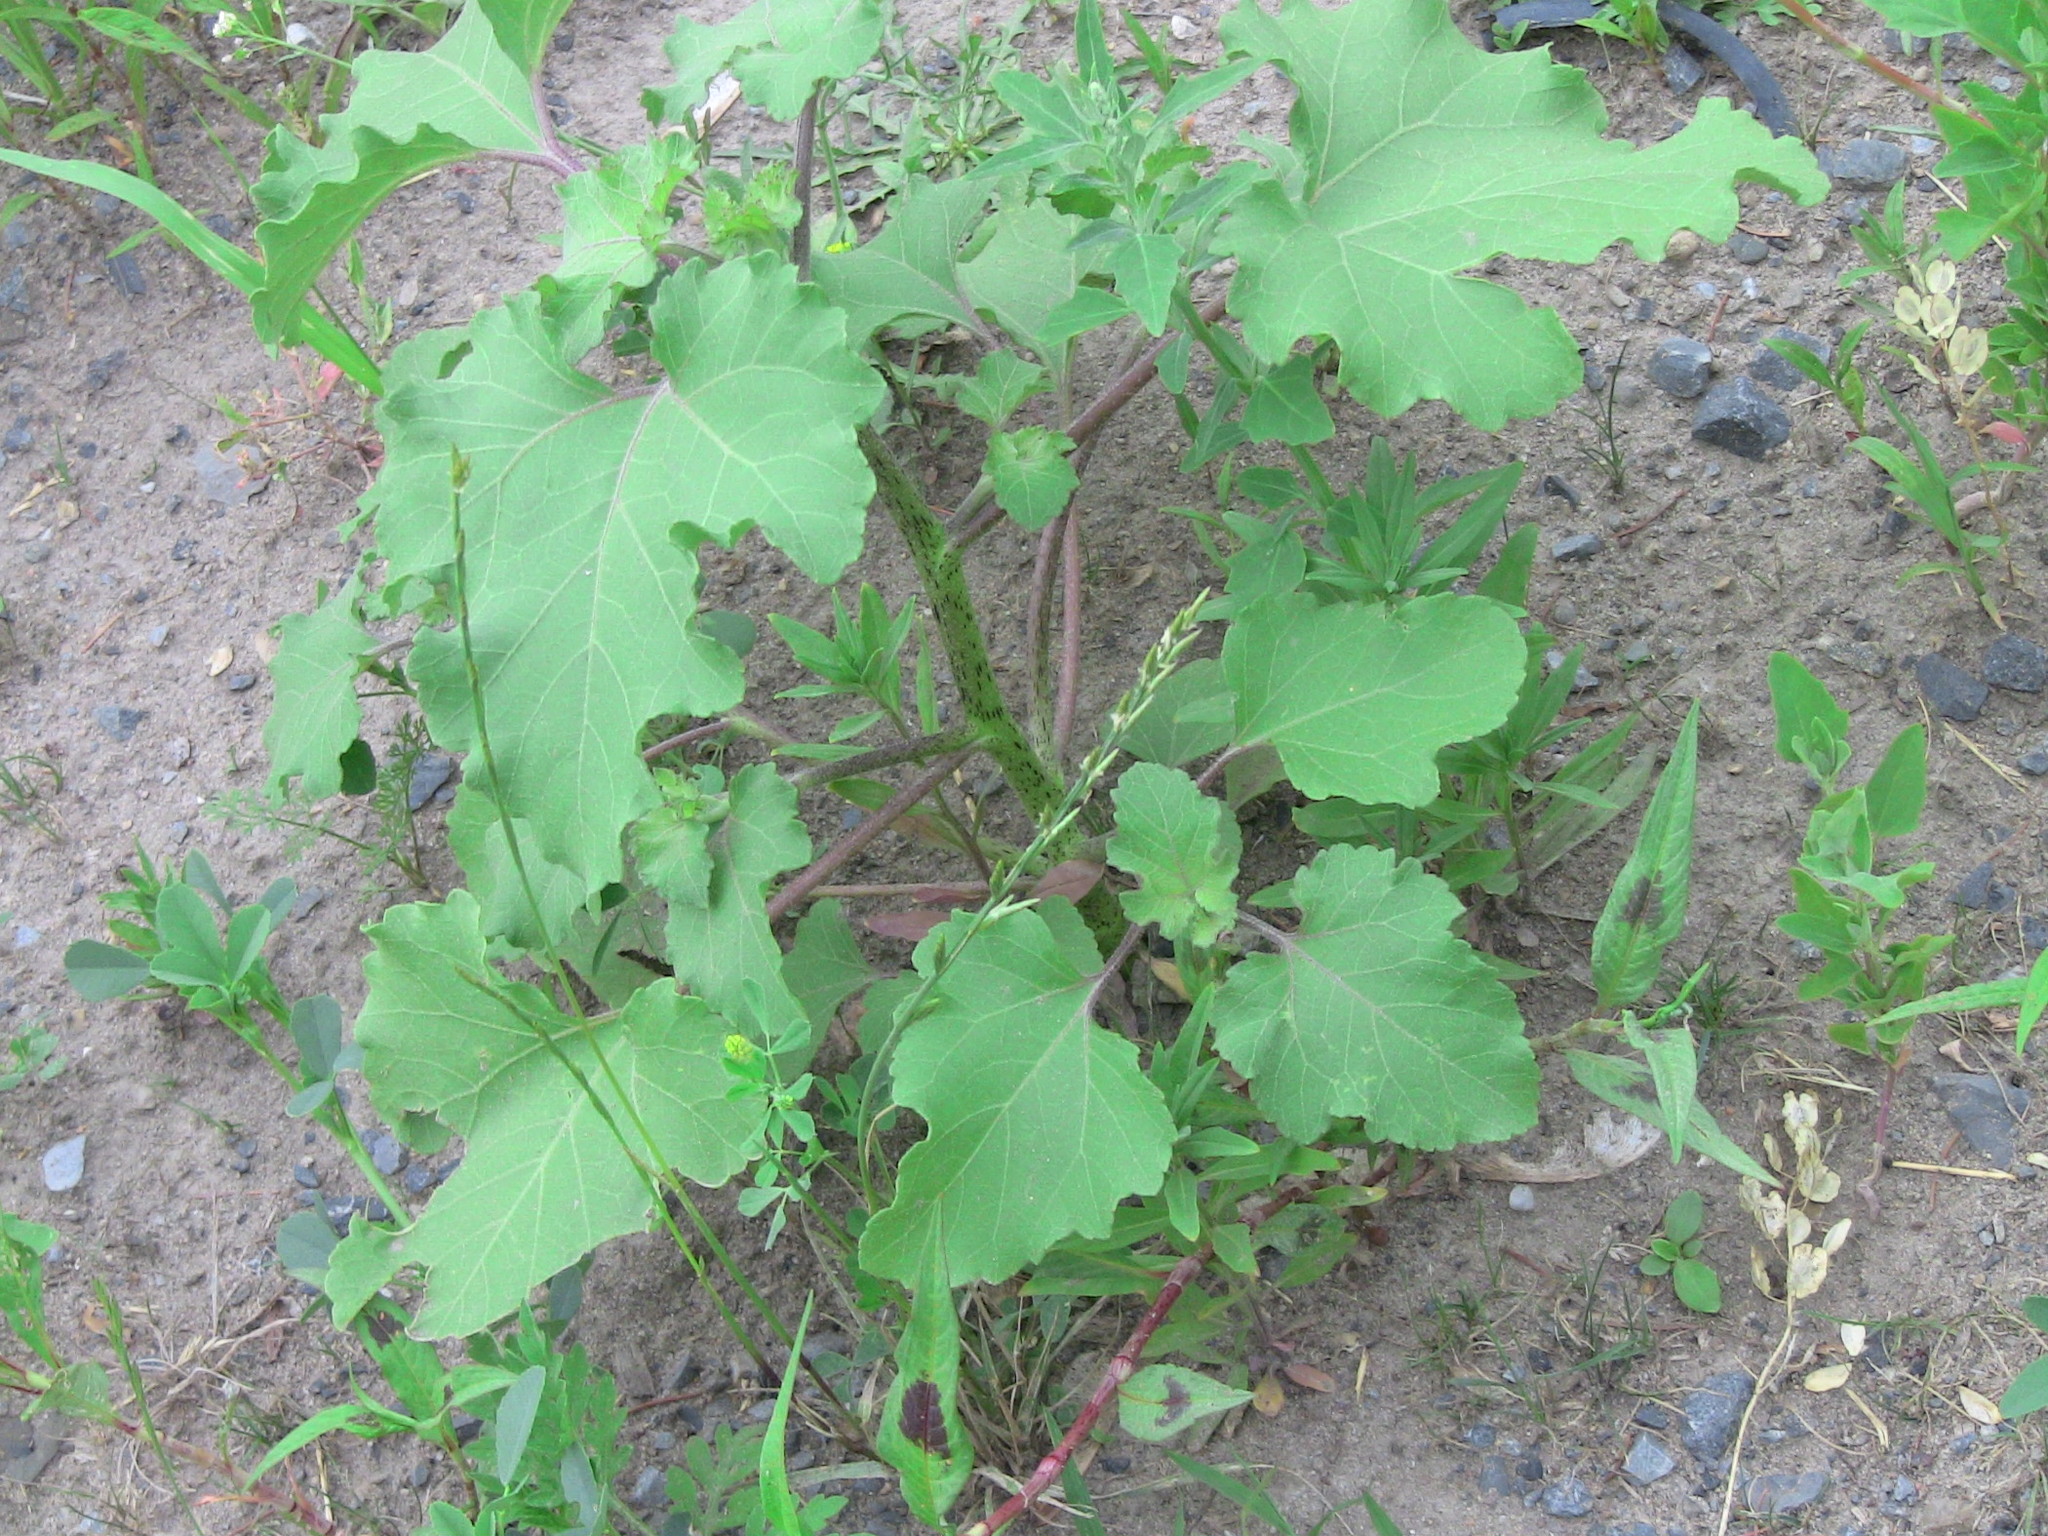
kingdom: Plantae
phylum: Tracheophyta
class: Magnoliopsida
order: Asterales
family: Asteraceae
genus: Xanthium
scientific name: Xanthium strumarium
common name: Rough cocklebur
